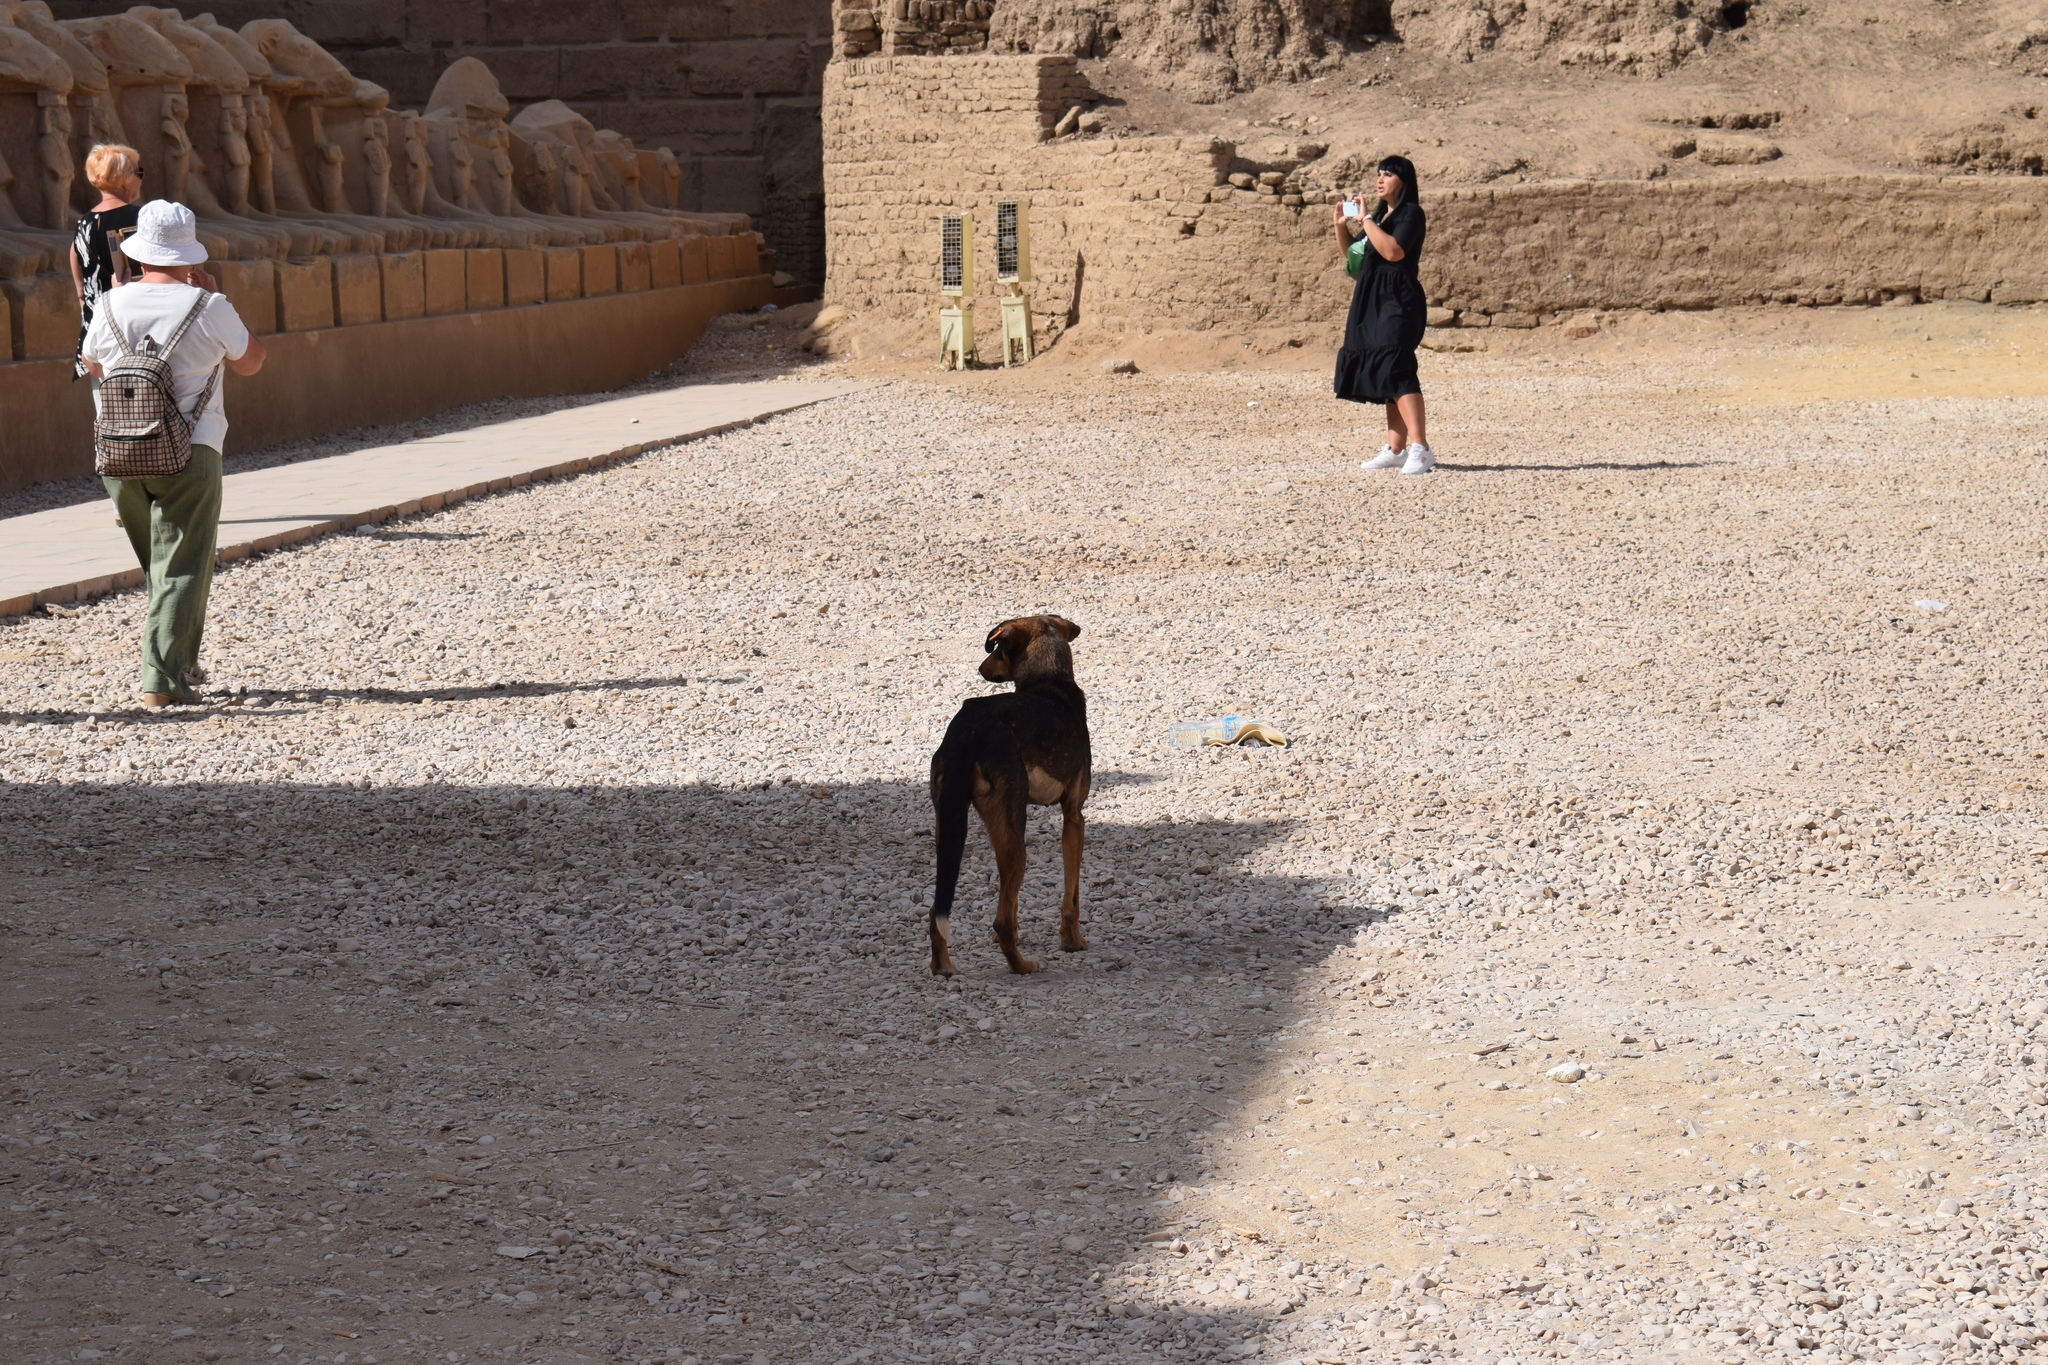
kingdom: Animalia
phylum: Chordata
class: Mammalia
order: Carnivora
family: Canidae
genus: Canis
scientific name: Canis lupus
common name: Gray wolf
